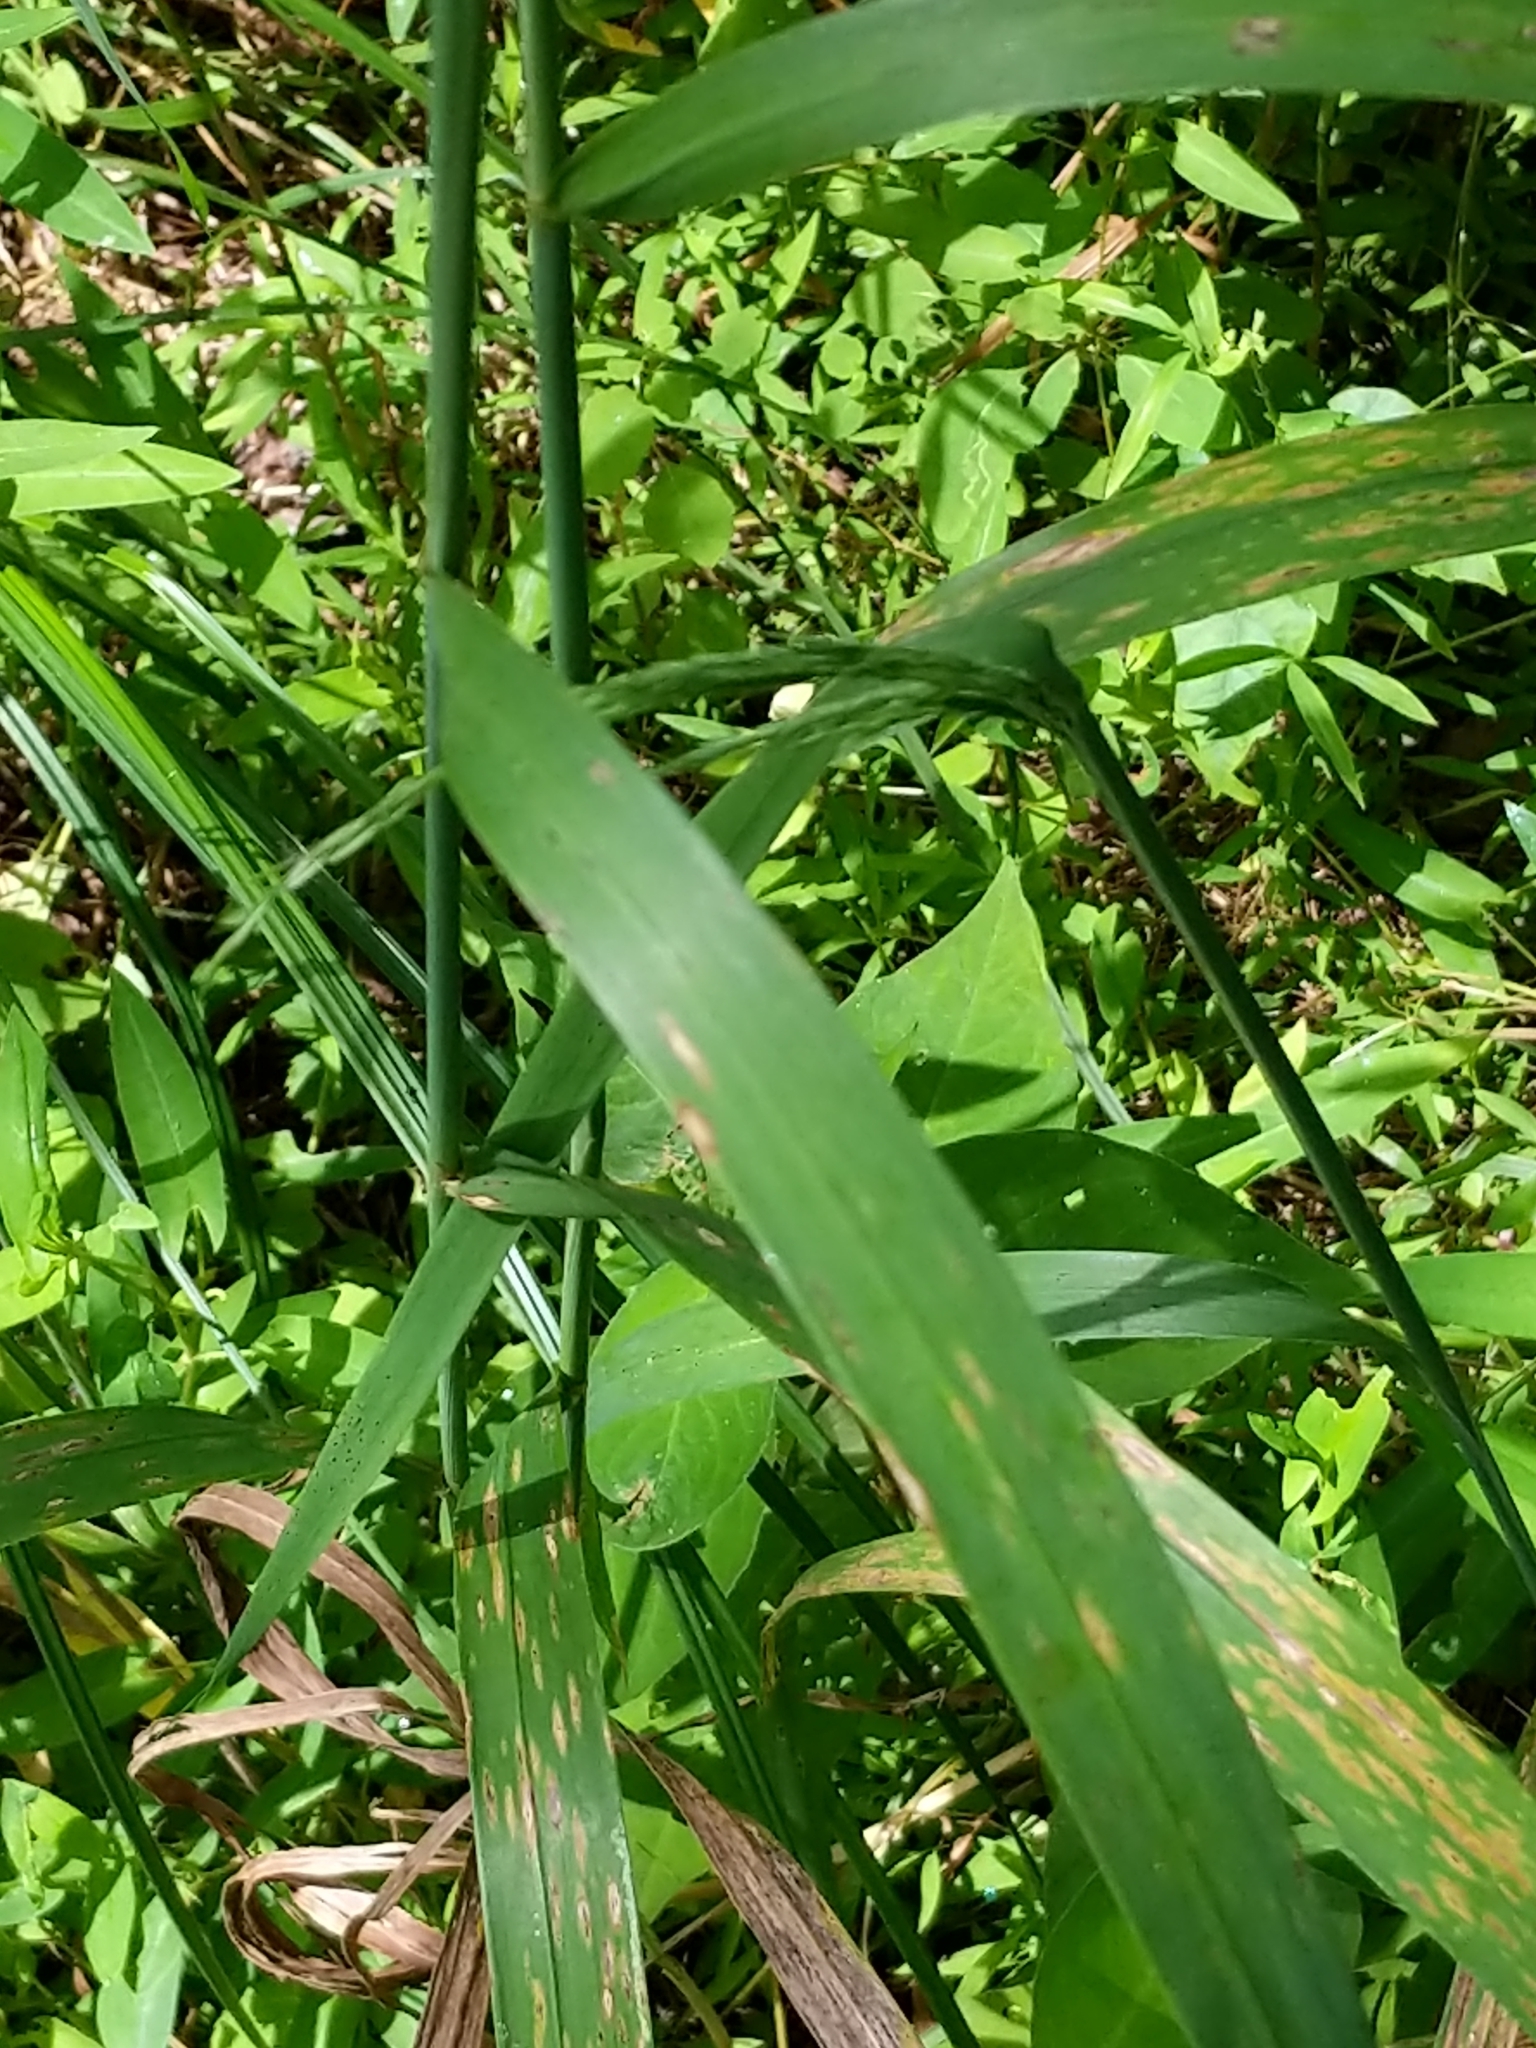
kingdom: Plantae
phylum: Tracheophyta
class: Liliopsida
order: Poales
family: Poaceae
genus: Cinna
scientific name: Cinna arundinacea
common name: Stout woodreed
